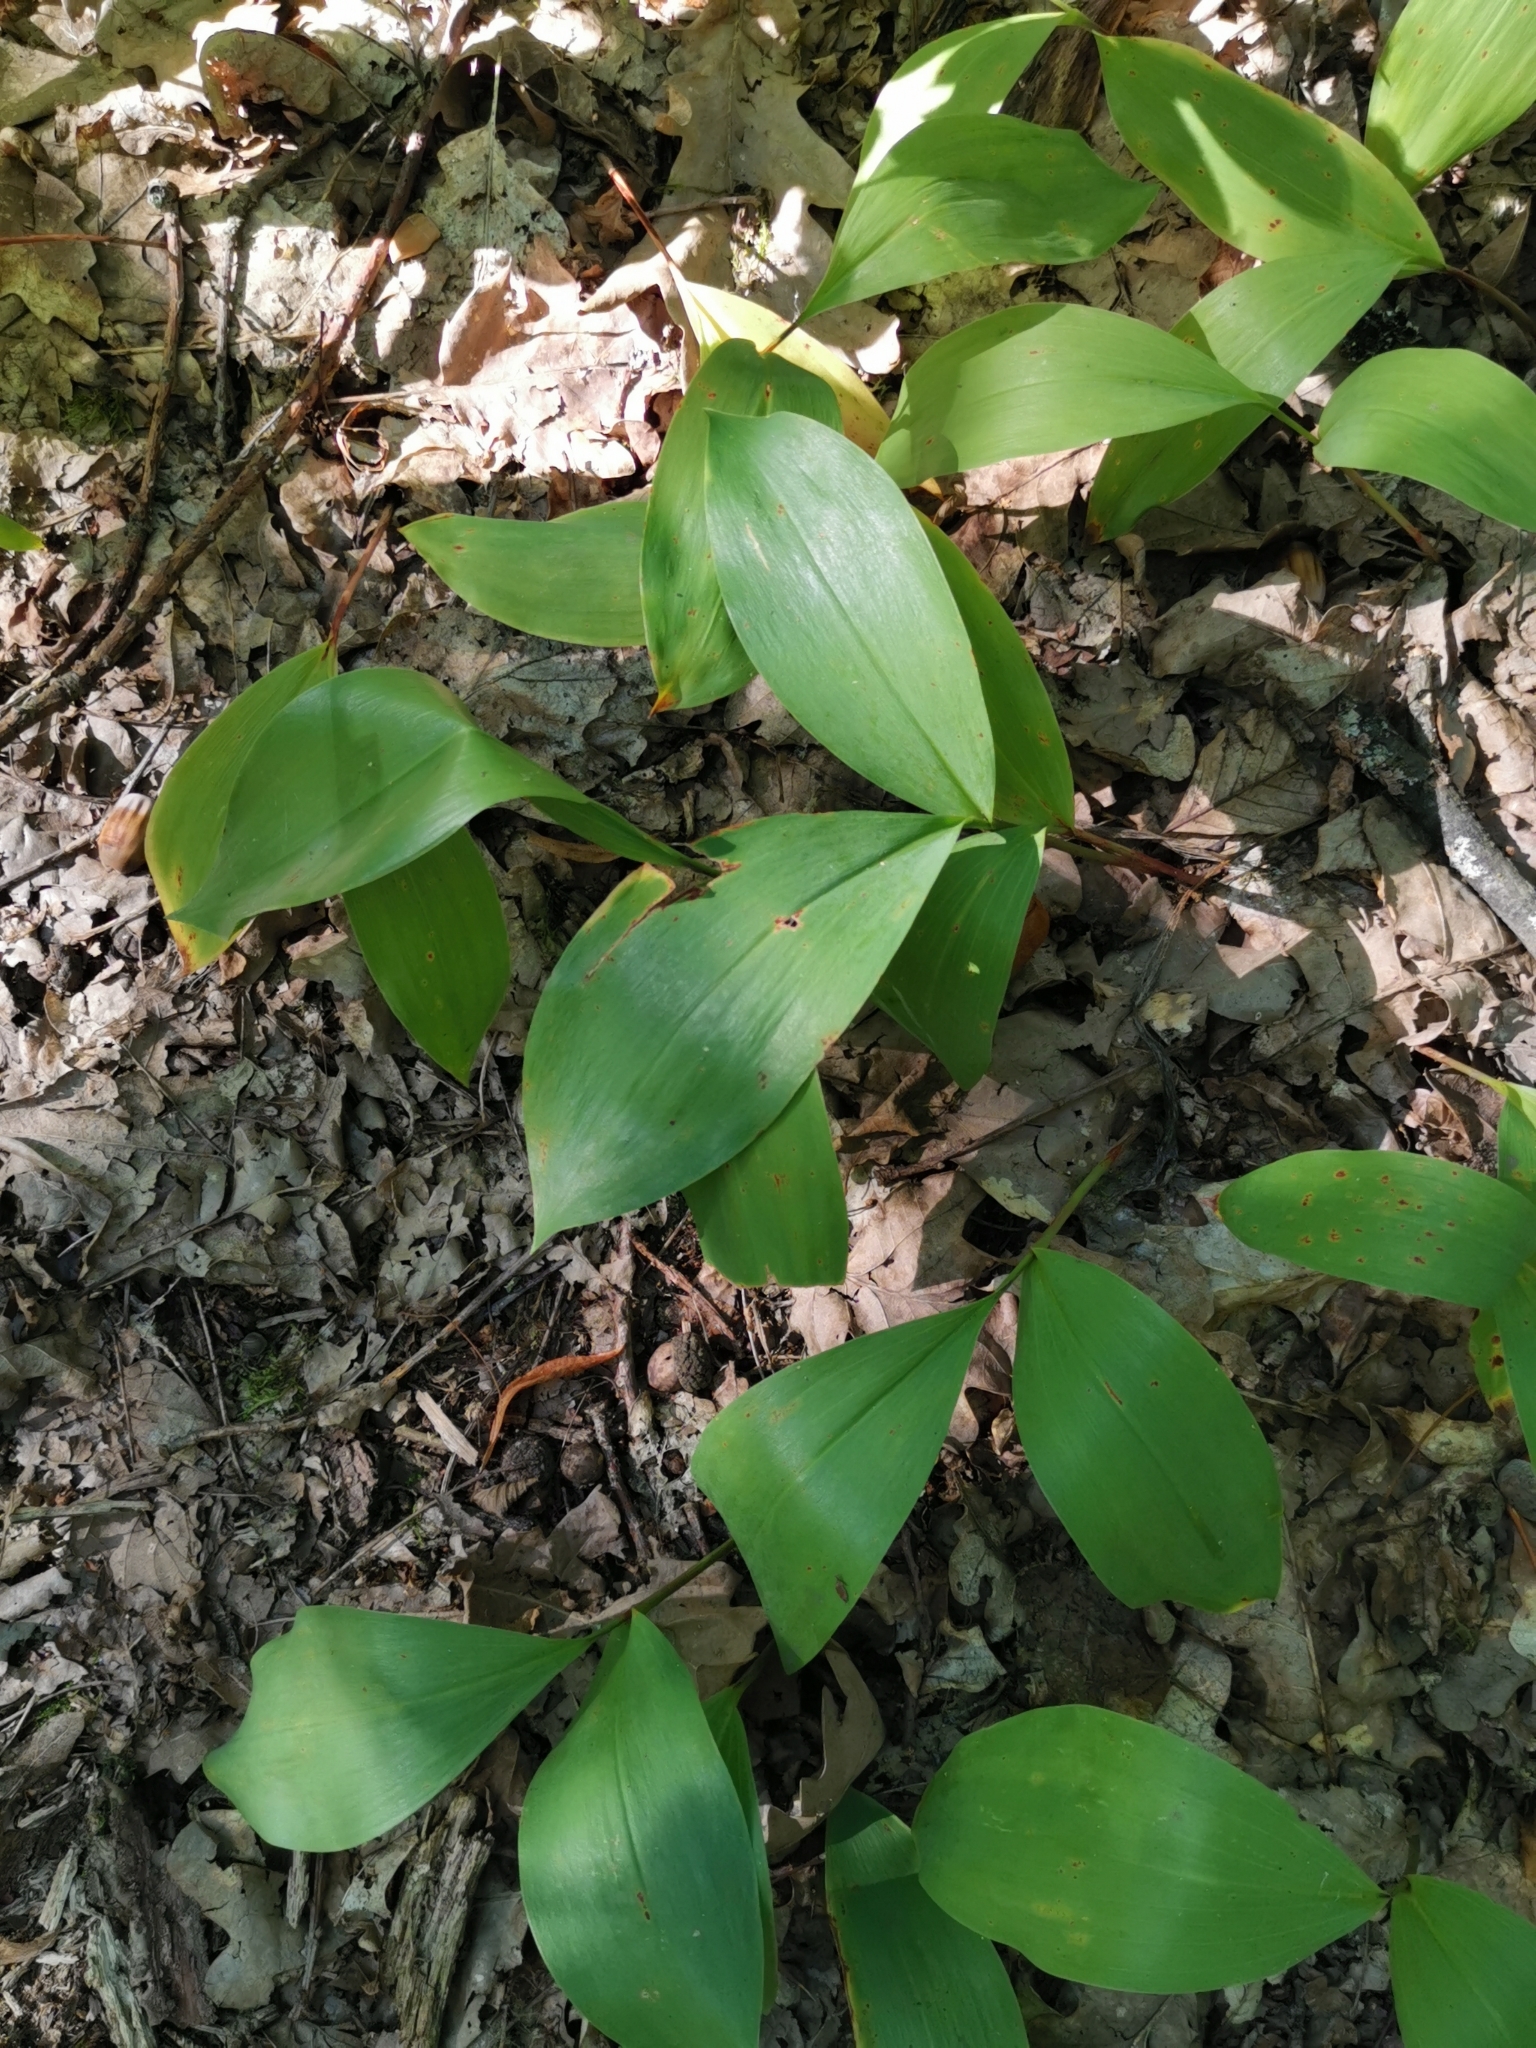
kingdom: Plantae
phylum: Tracheophyta
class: Liliopsida
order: Asparagales
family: Asparagaceae
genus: Convallaria
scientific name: Convallaria majalis
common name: Lily-of-the-valley
